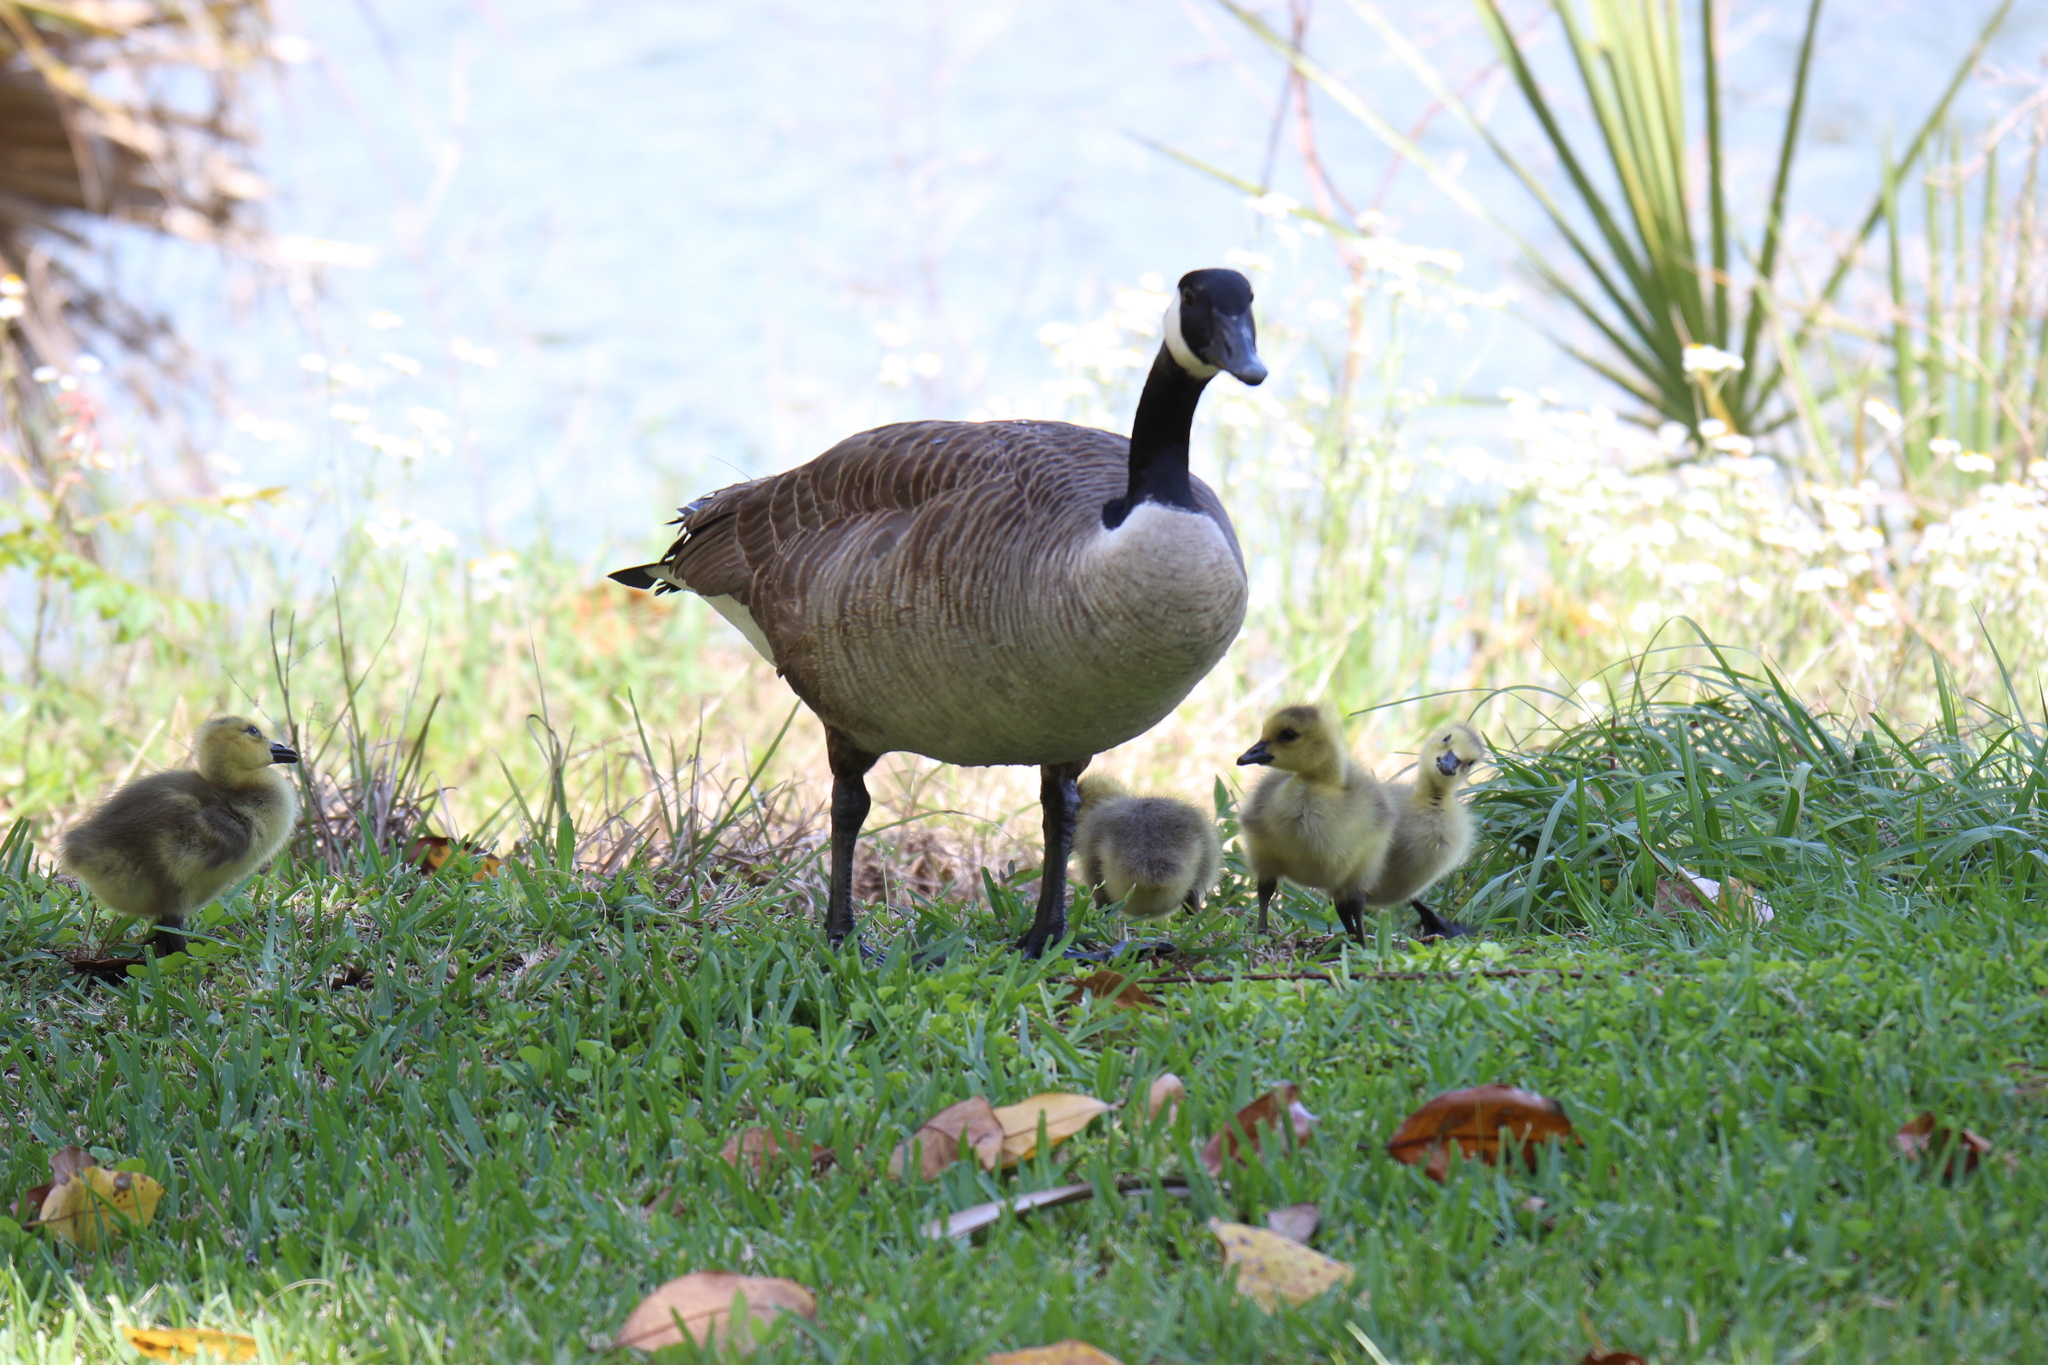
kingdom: Animalia
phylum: Chordata
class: Aves
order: Anseriformes
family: Anatidae
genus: Branta
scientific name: Branta canadensis
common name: Canada goose
